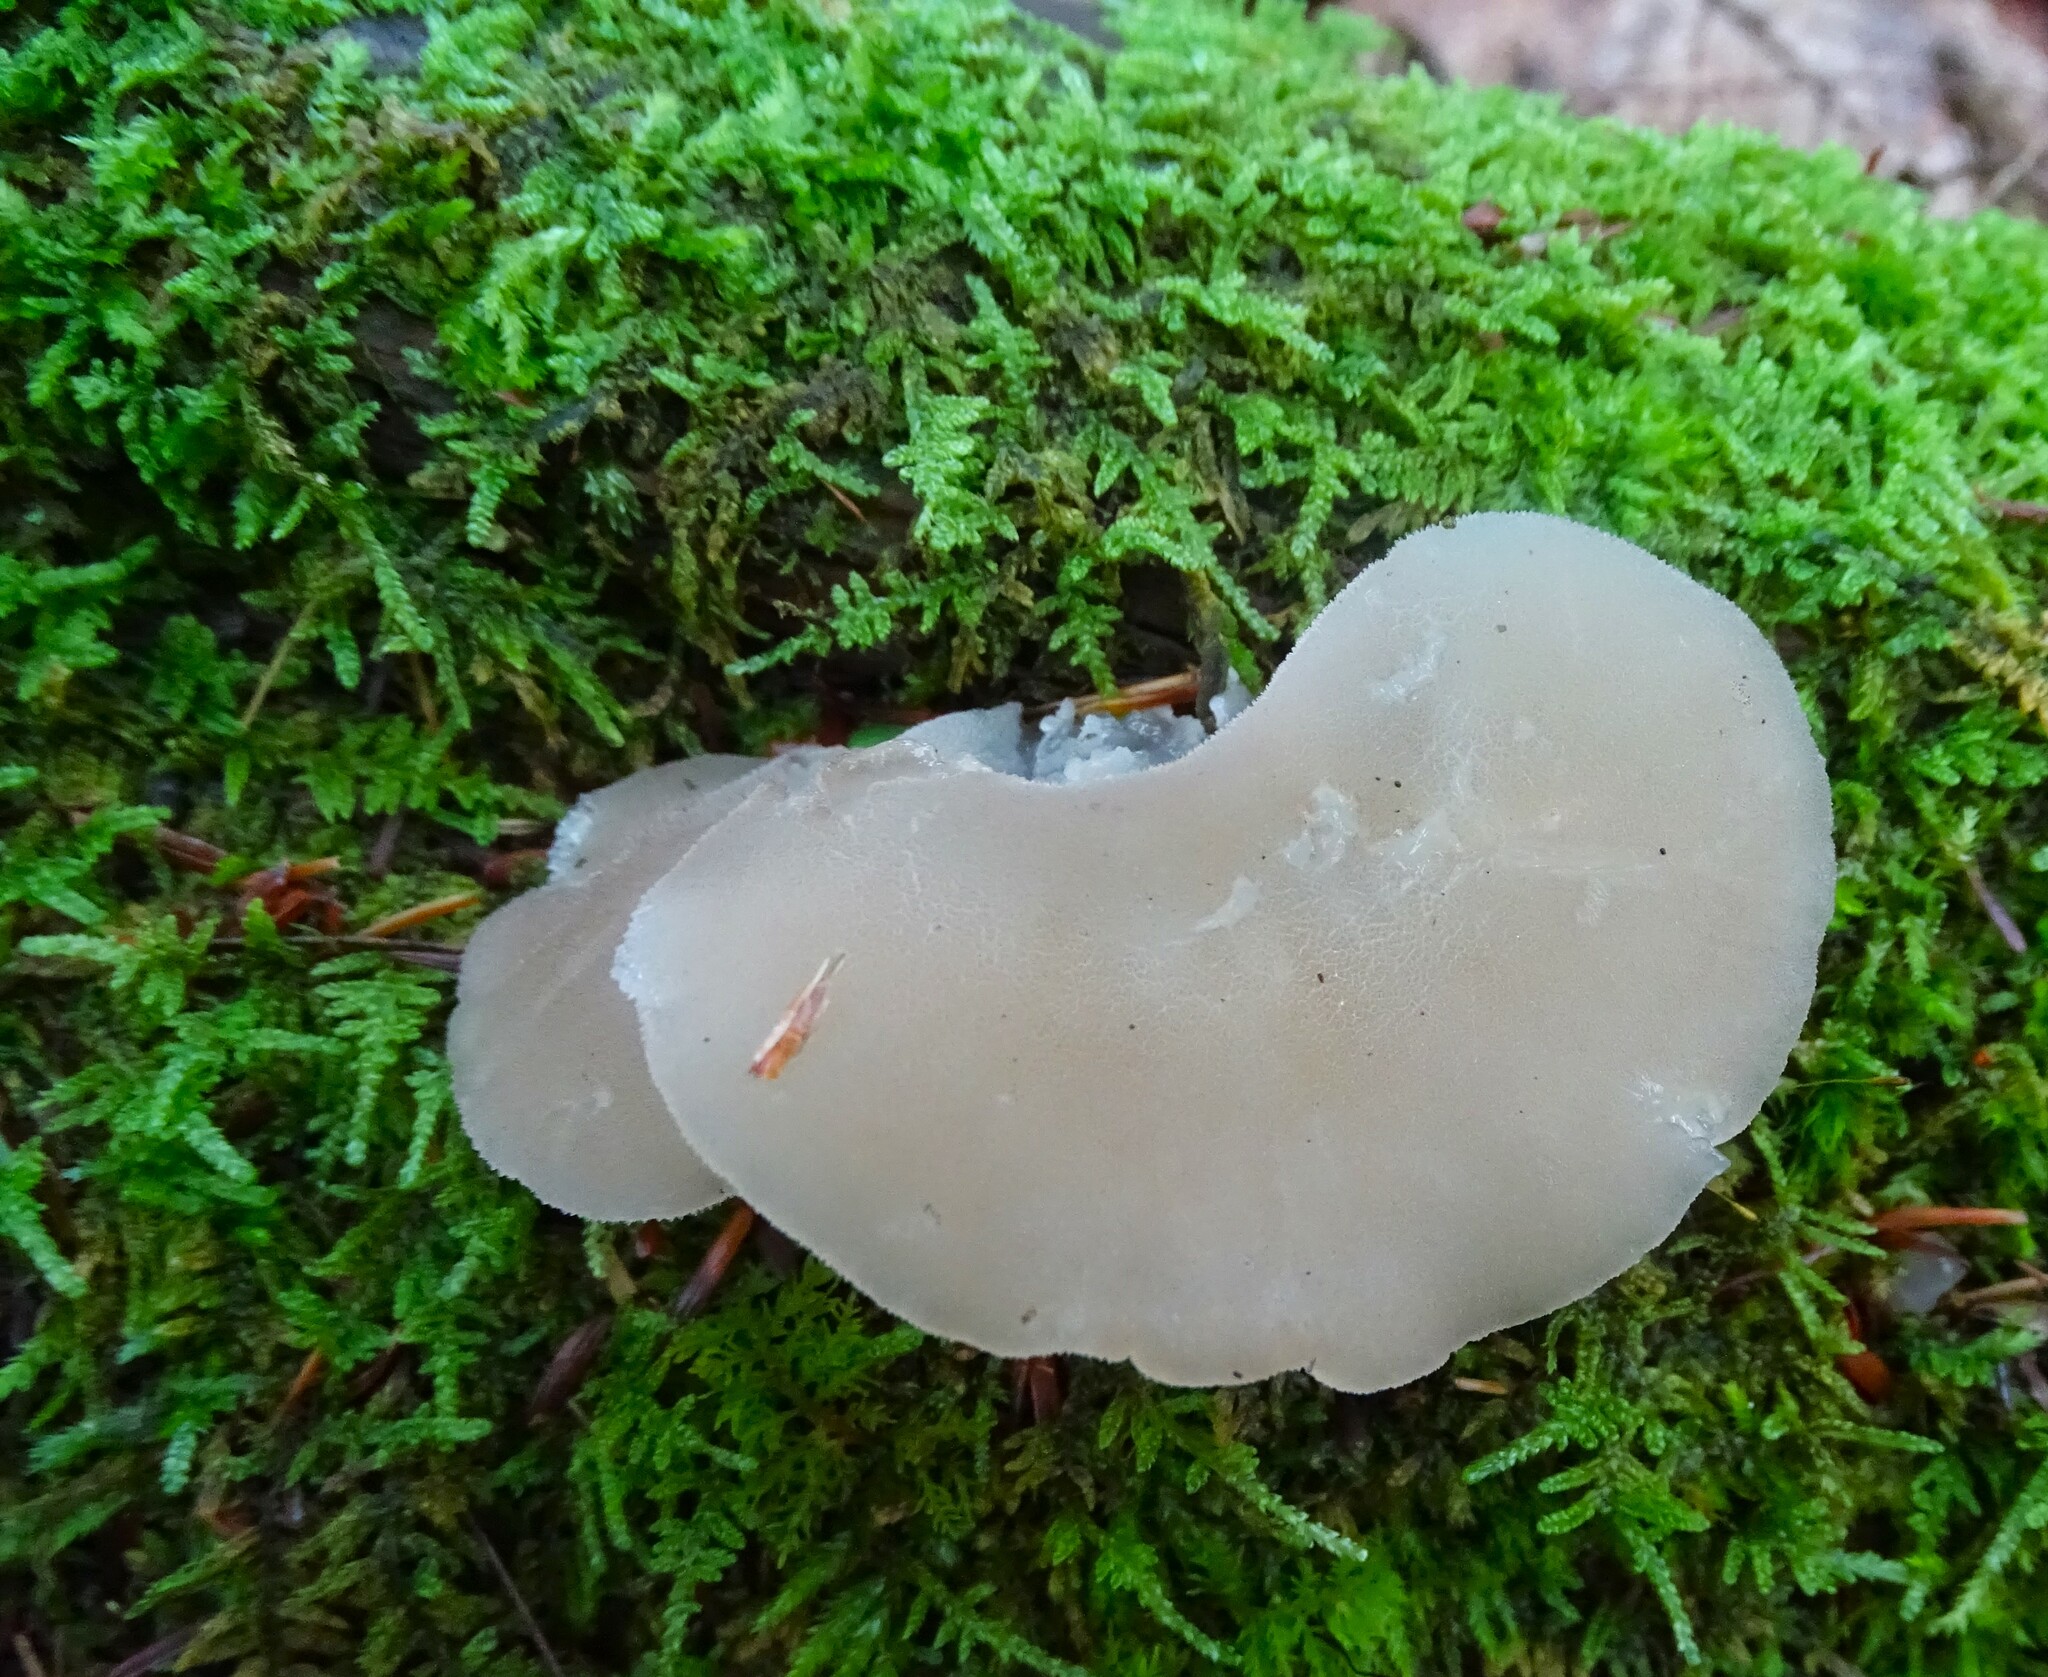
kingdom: Fungi
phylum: Basidiomycota
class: Agaricomycetes
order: Auriculariales
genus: Pseudohydnum
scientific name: Pseudohydnum gelatinosum
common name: Jelly tongue
